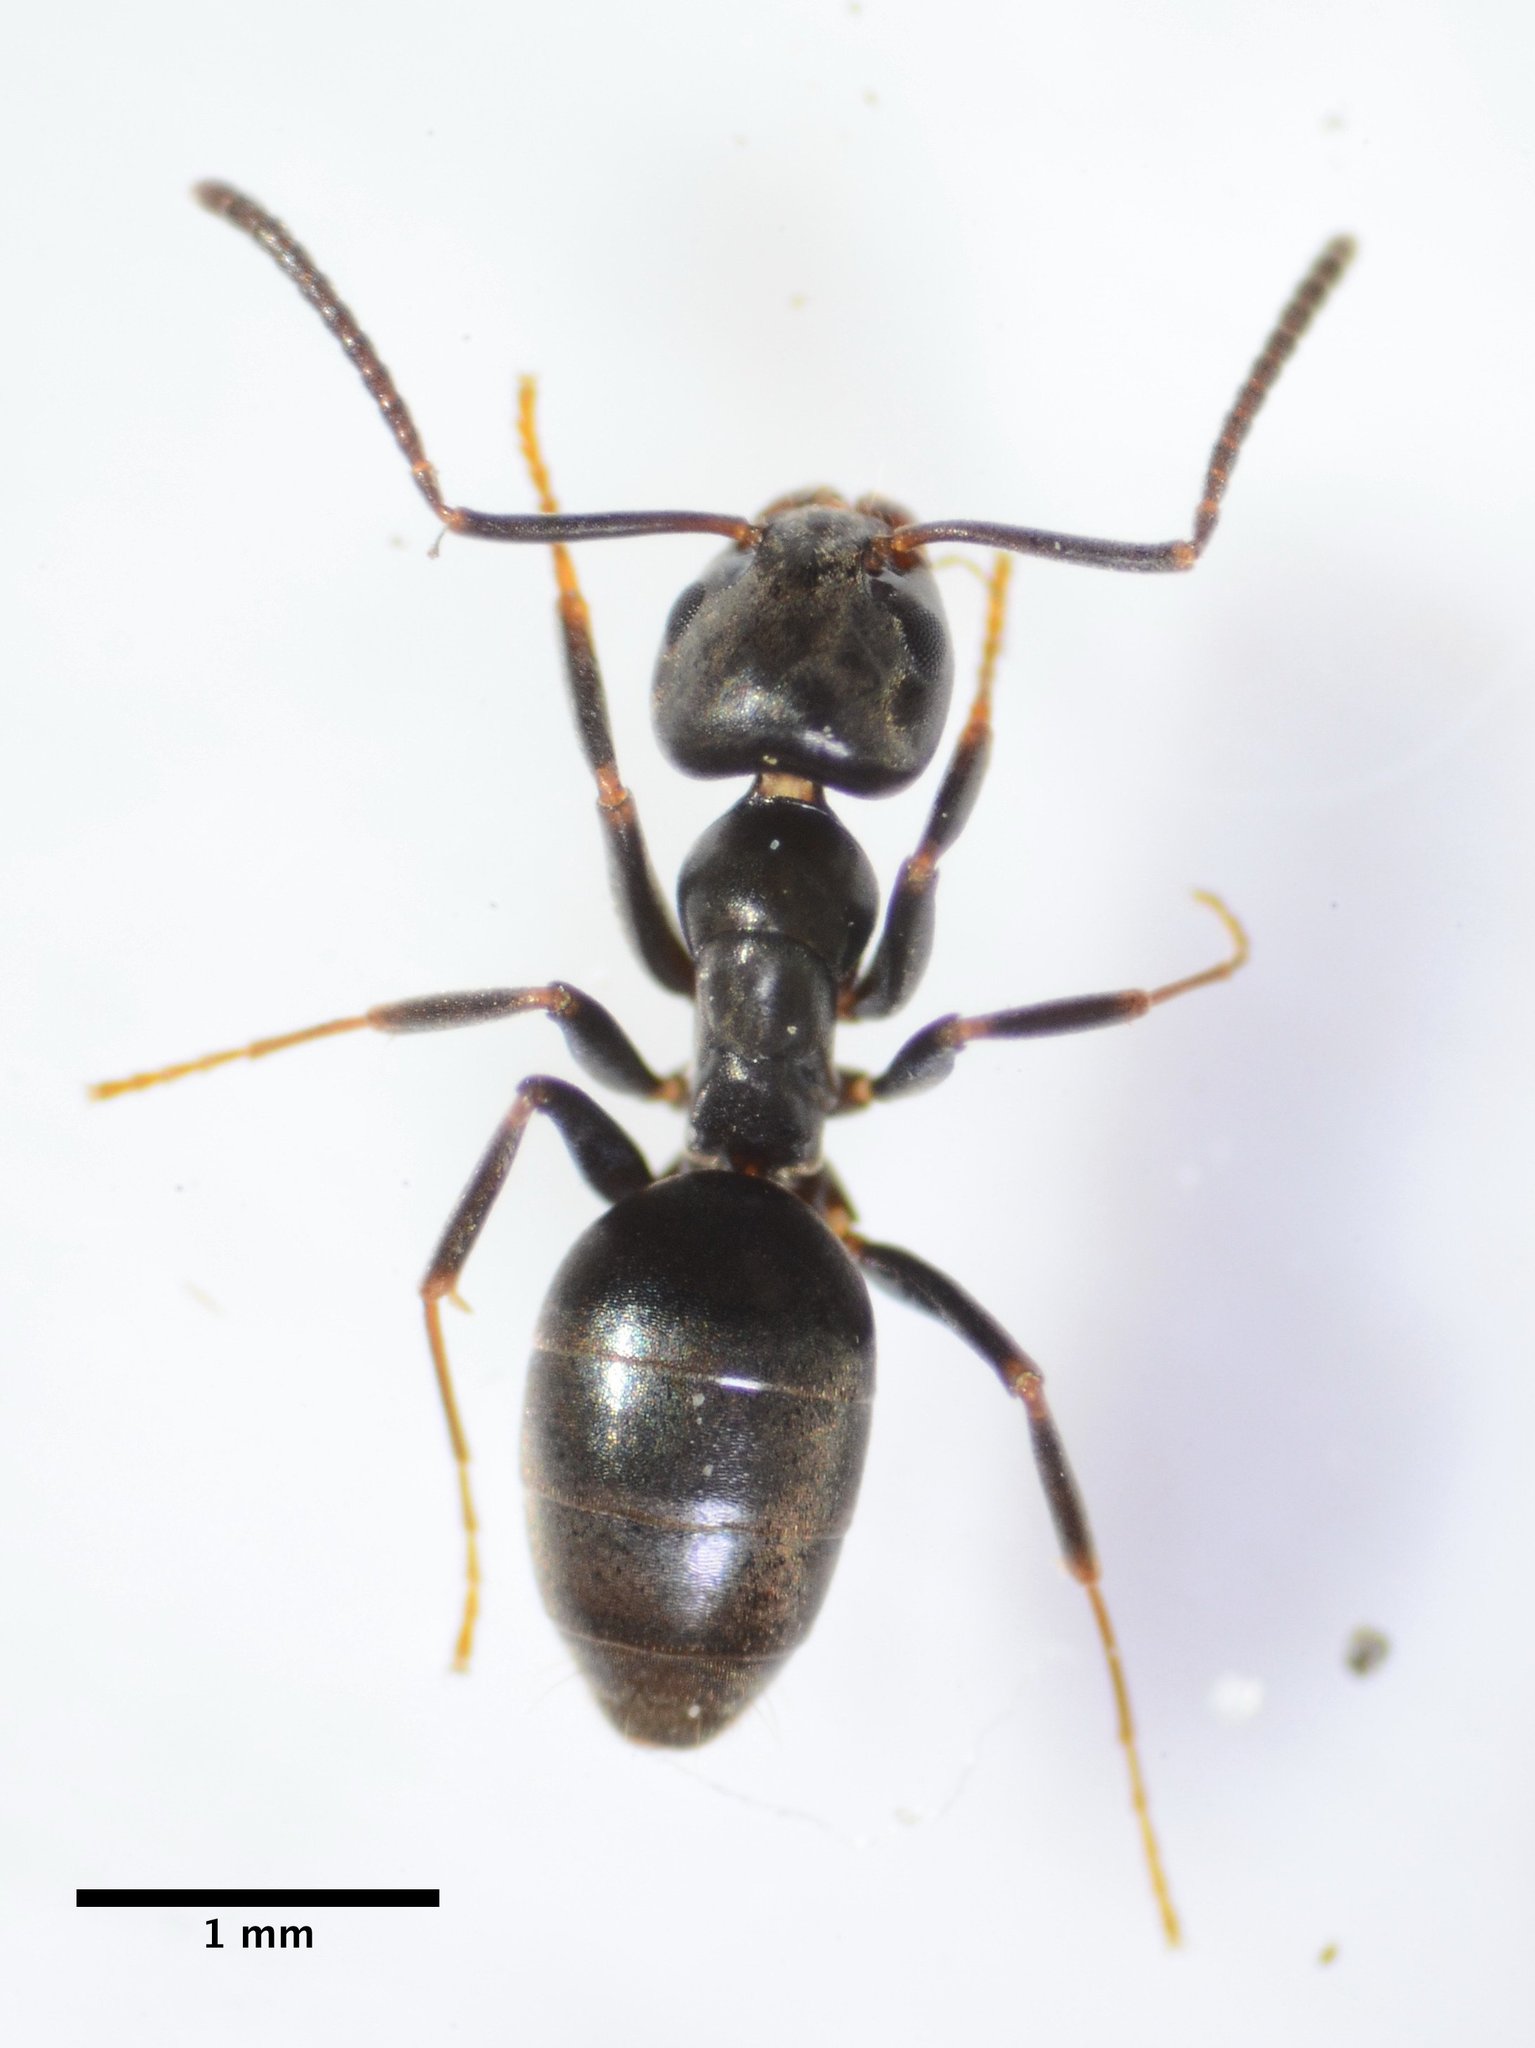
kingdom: Animalia
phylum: Arthropoda
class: Insecta
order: Hymenoptera
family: Formicidae
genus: Tapinoma
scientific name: Tapinoma sessile
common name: Odorous house ant
